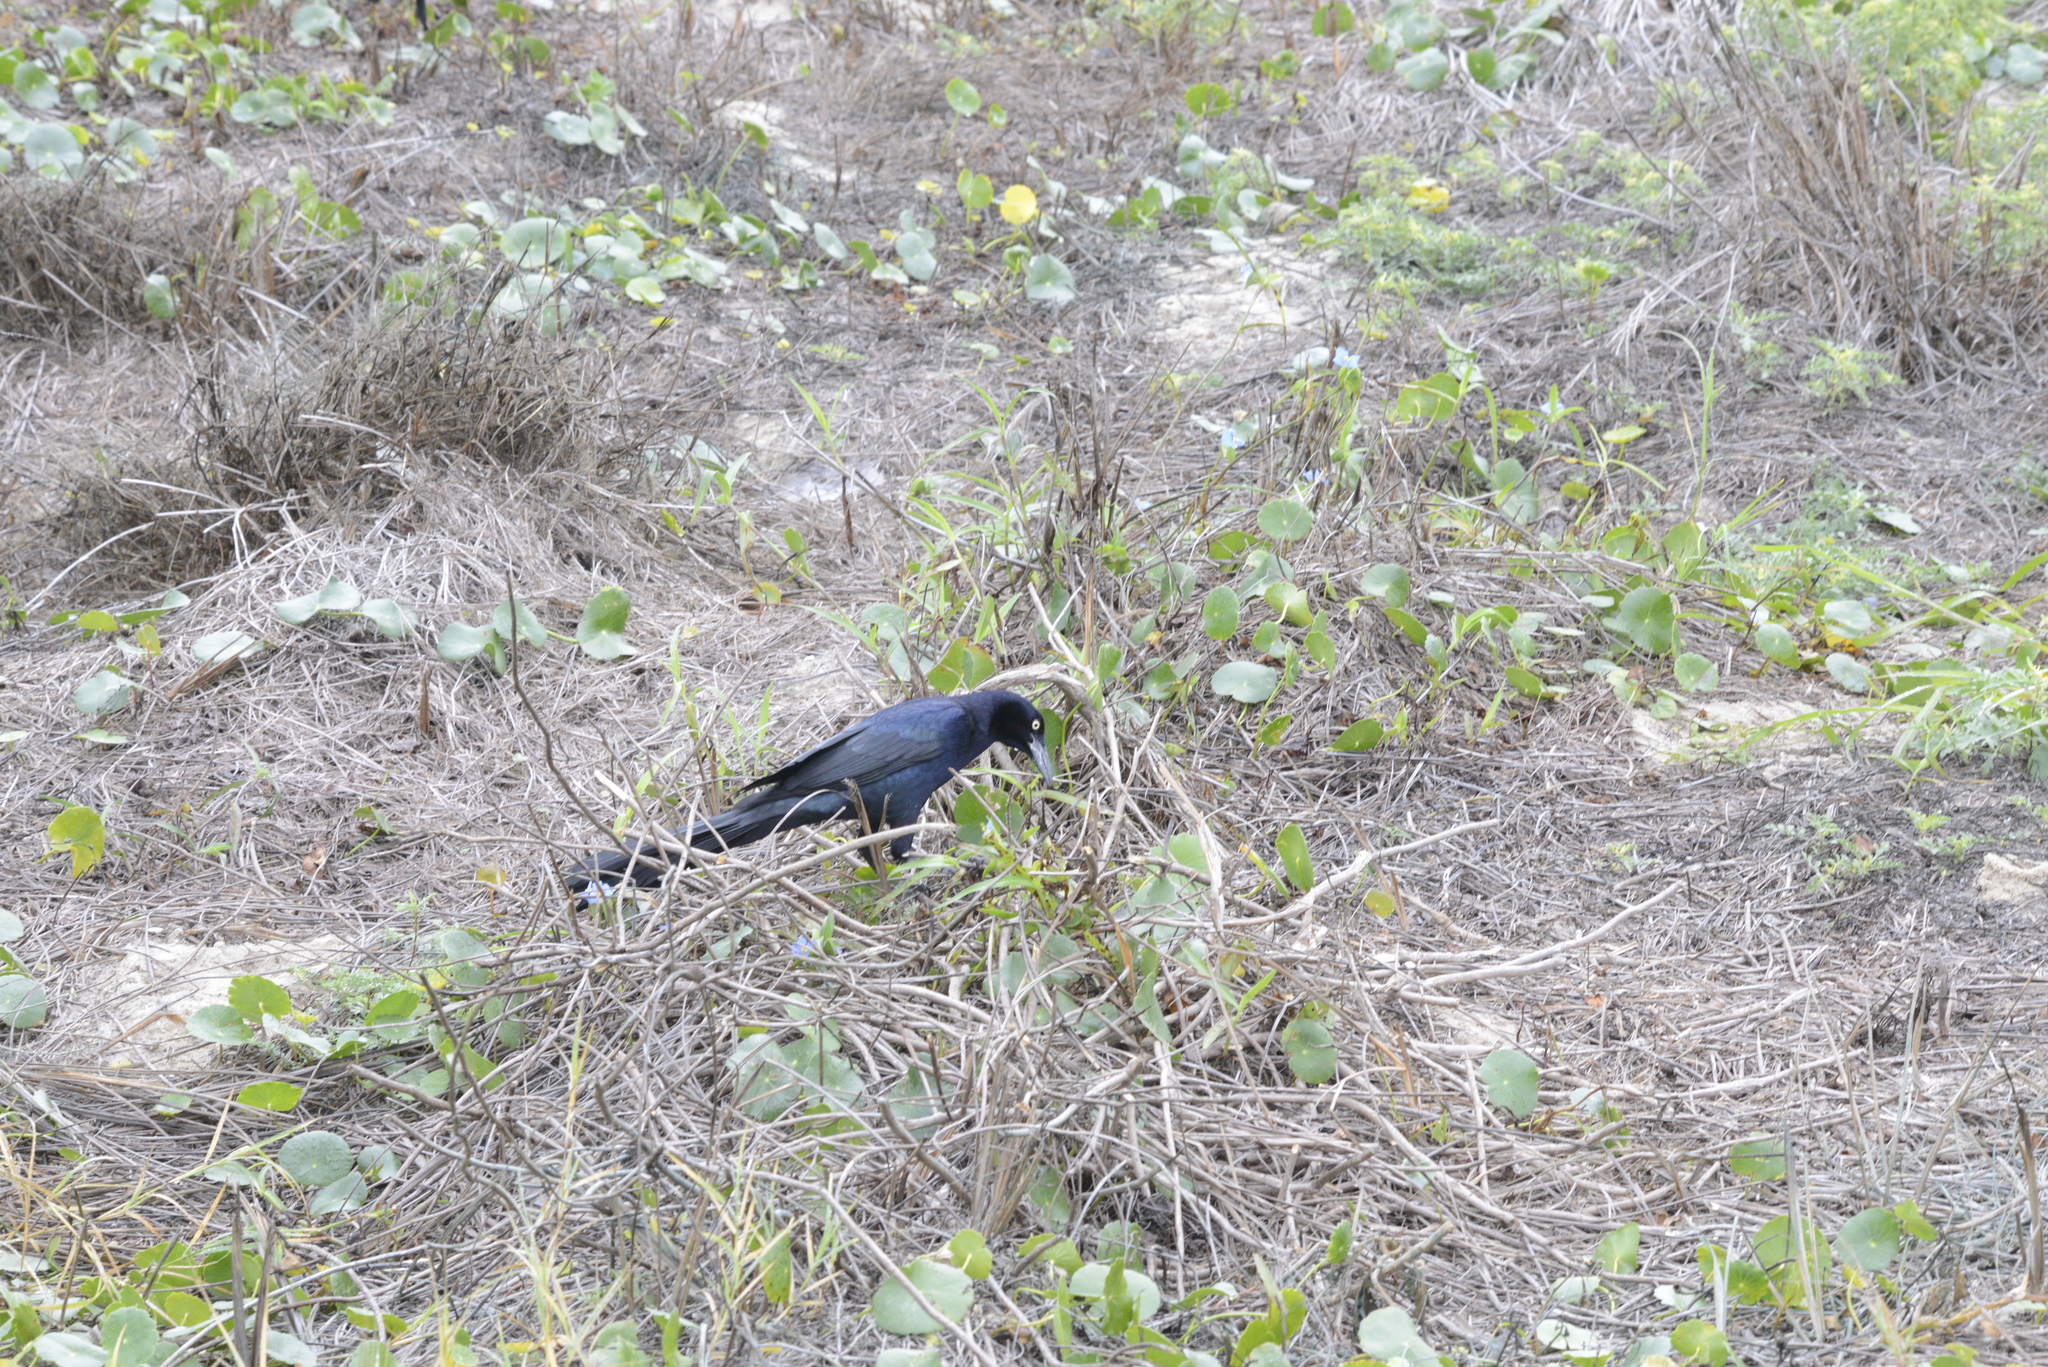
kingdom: Animalia
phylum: Chordata
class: Aves
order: Passeriformes
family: Icteridae
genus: Quiscalus
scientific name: Quiscalus mexicanus
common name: Great-tailed grackle
